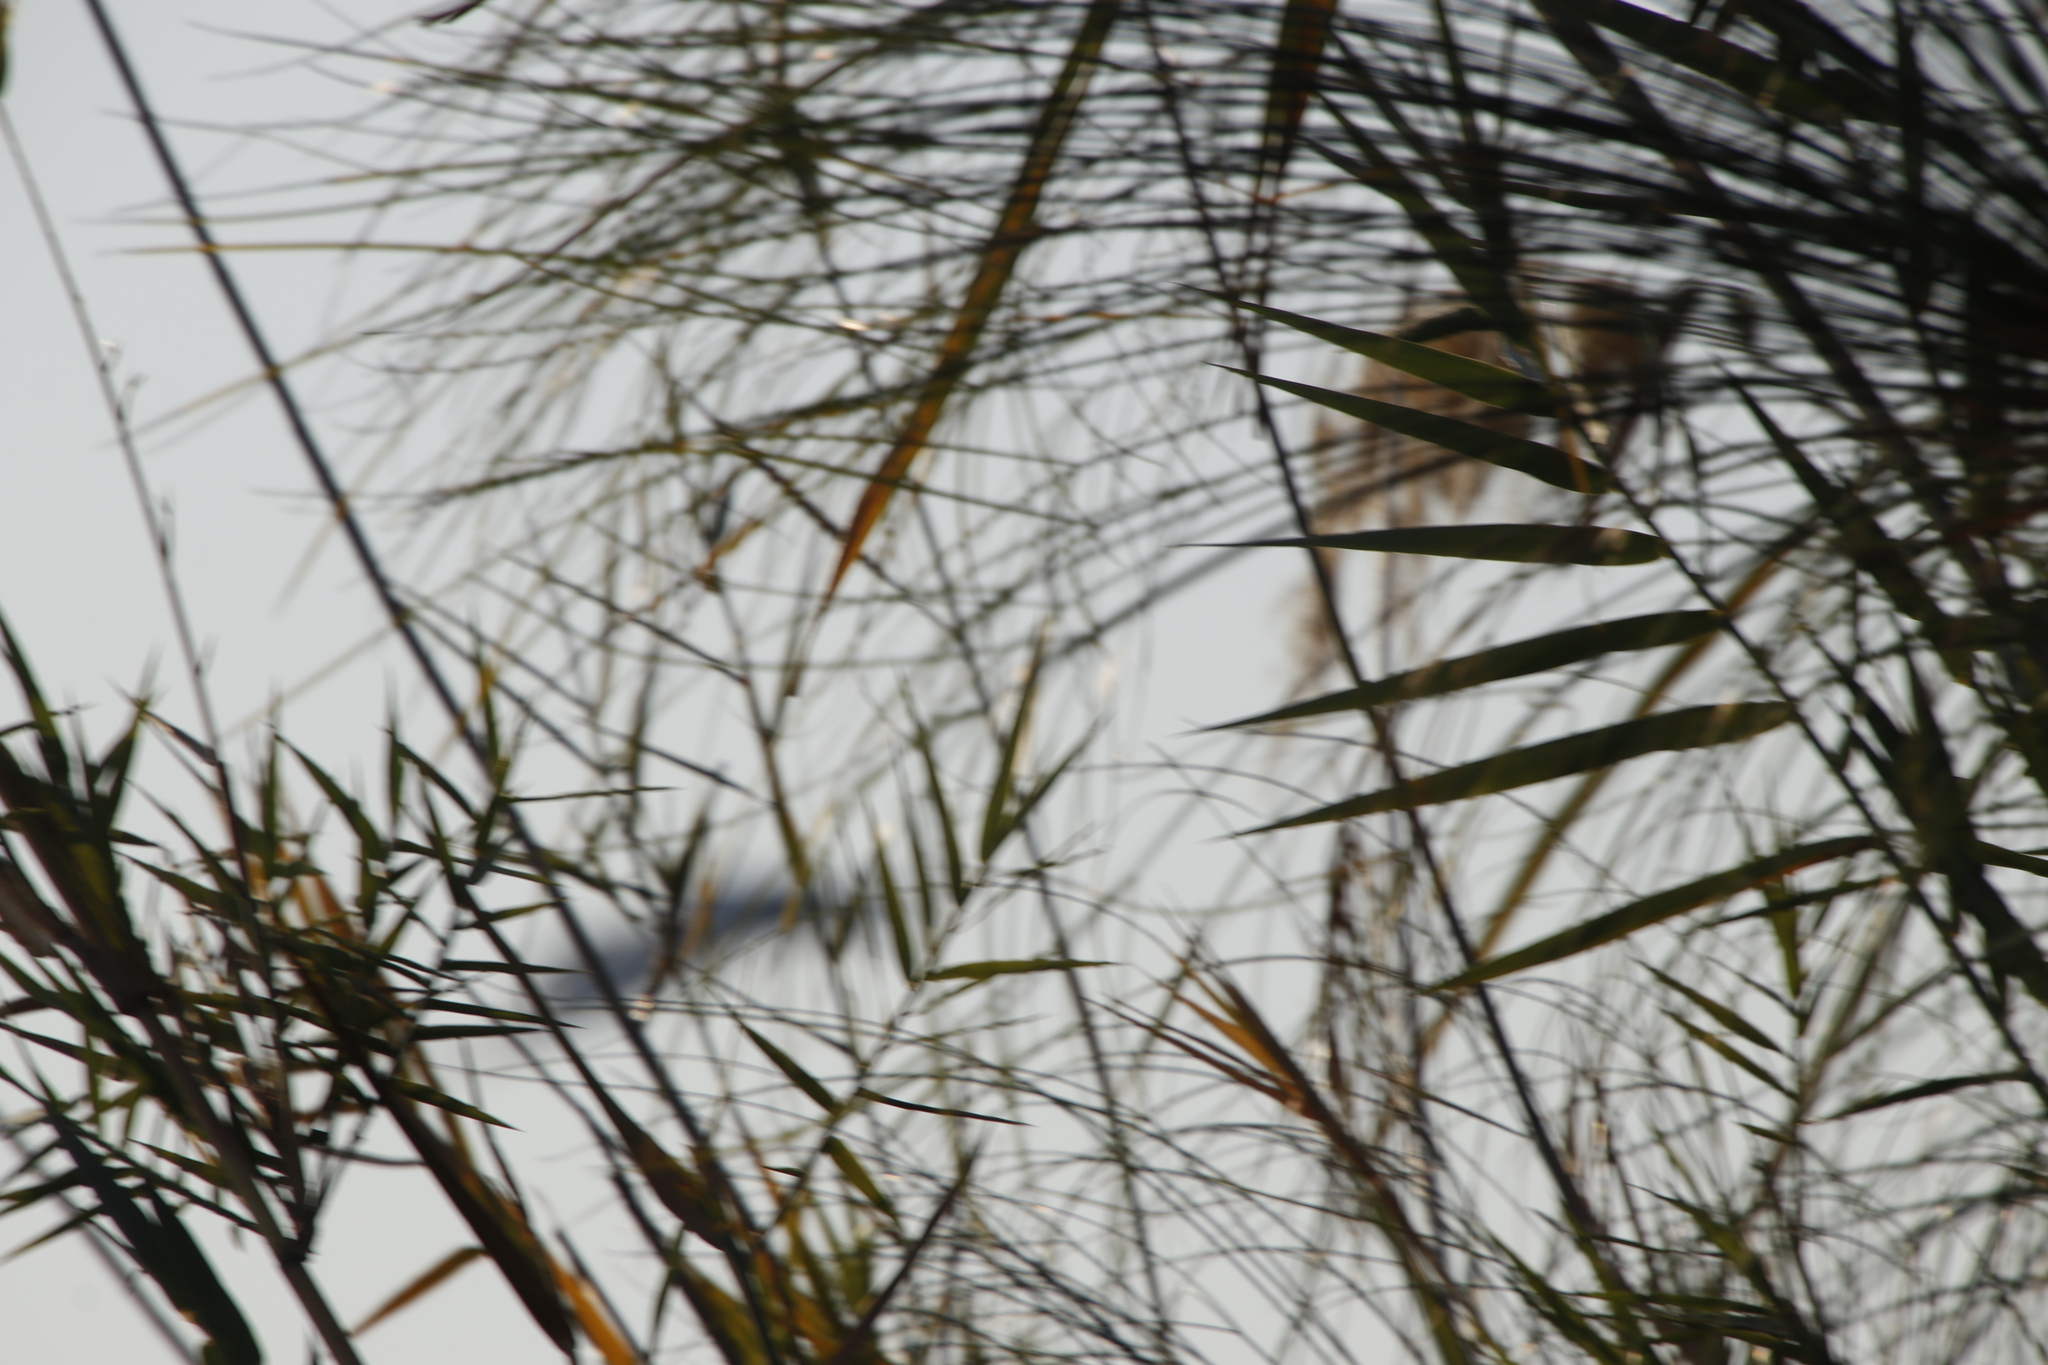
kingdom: Plantae
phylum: Tracheophyta
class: Liliopsida
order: Poales
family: Poaceae
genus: Phragmites
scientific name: Phragmites australis
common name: Common reed
